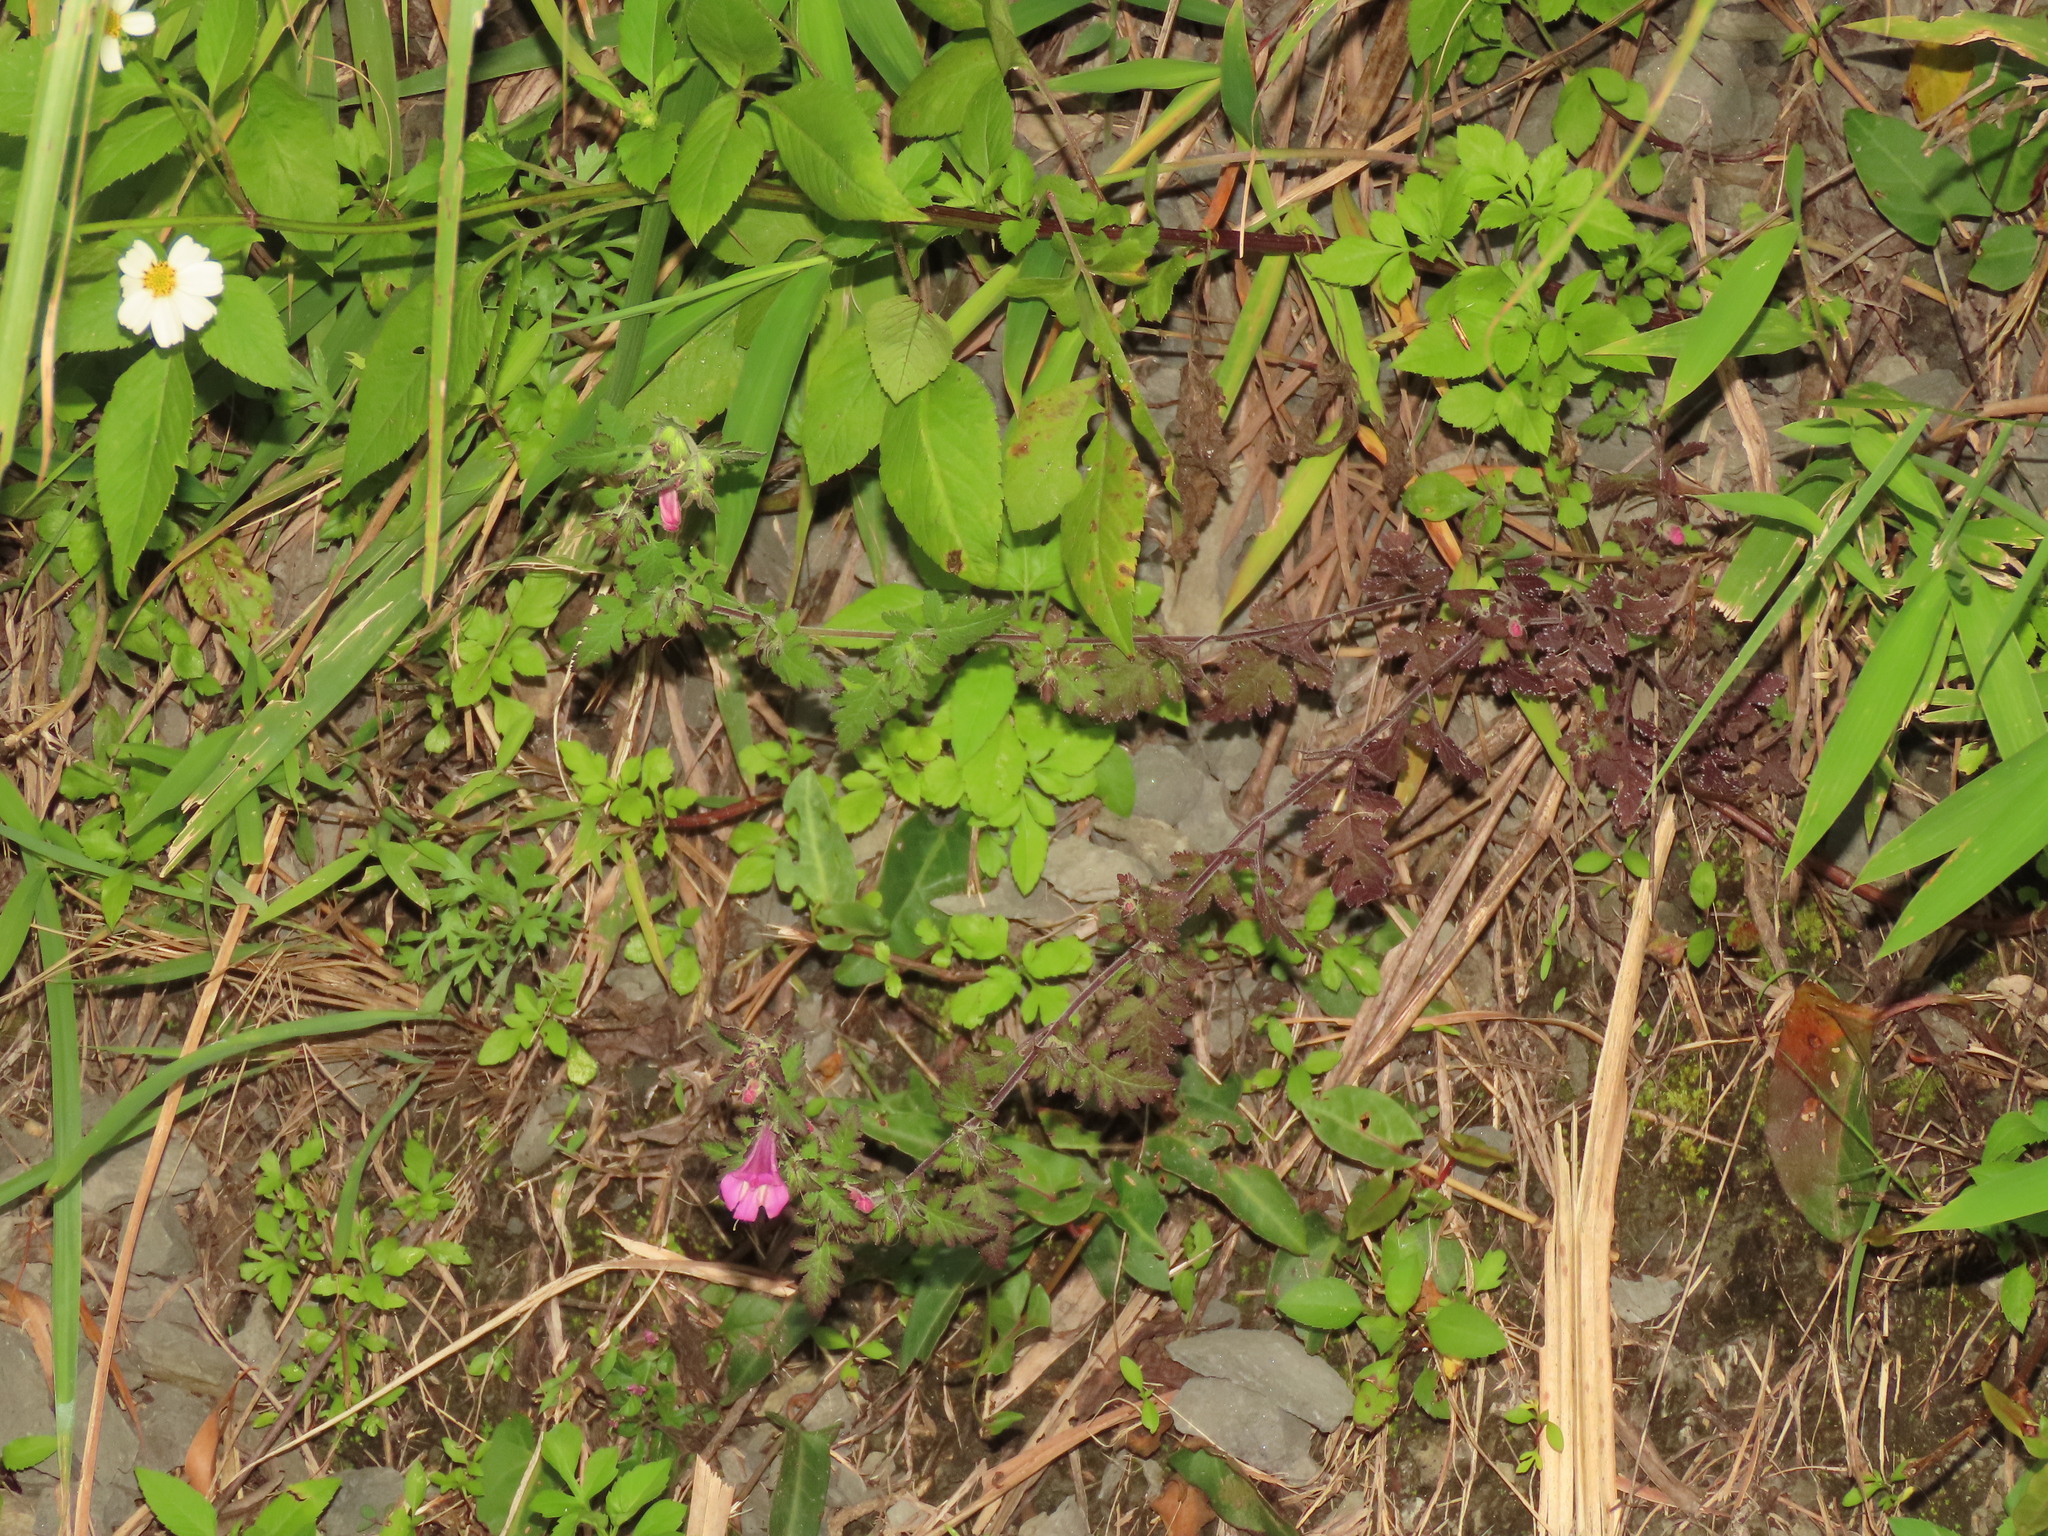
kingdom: Plantae
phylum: Tracheophyta
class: Magnoliopsida
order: Lamiales
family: Orobanchaceae
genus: Phtheirospermum
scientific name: Phtheirospermum japonicum
